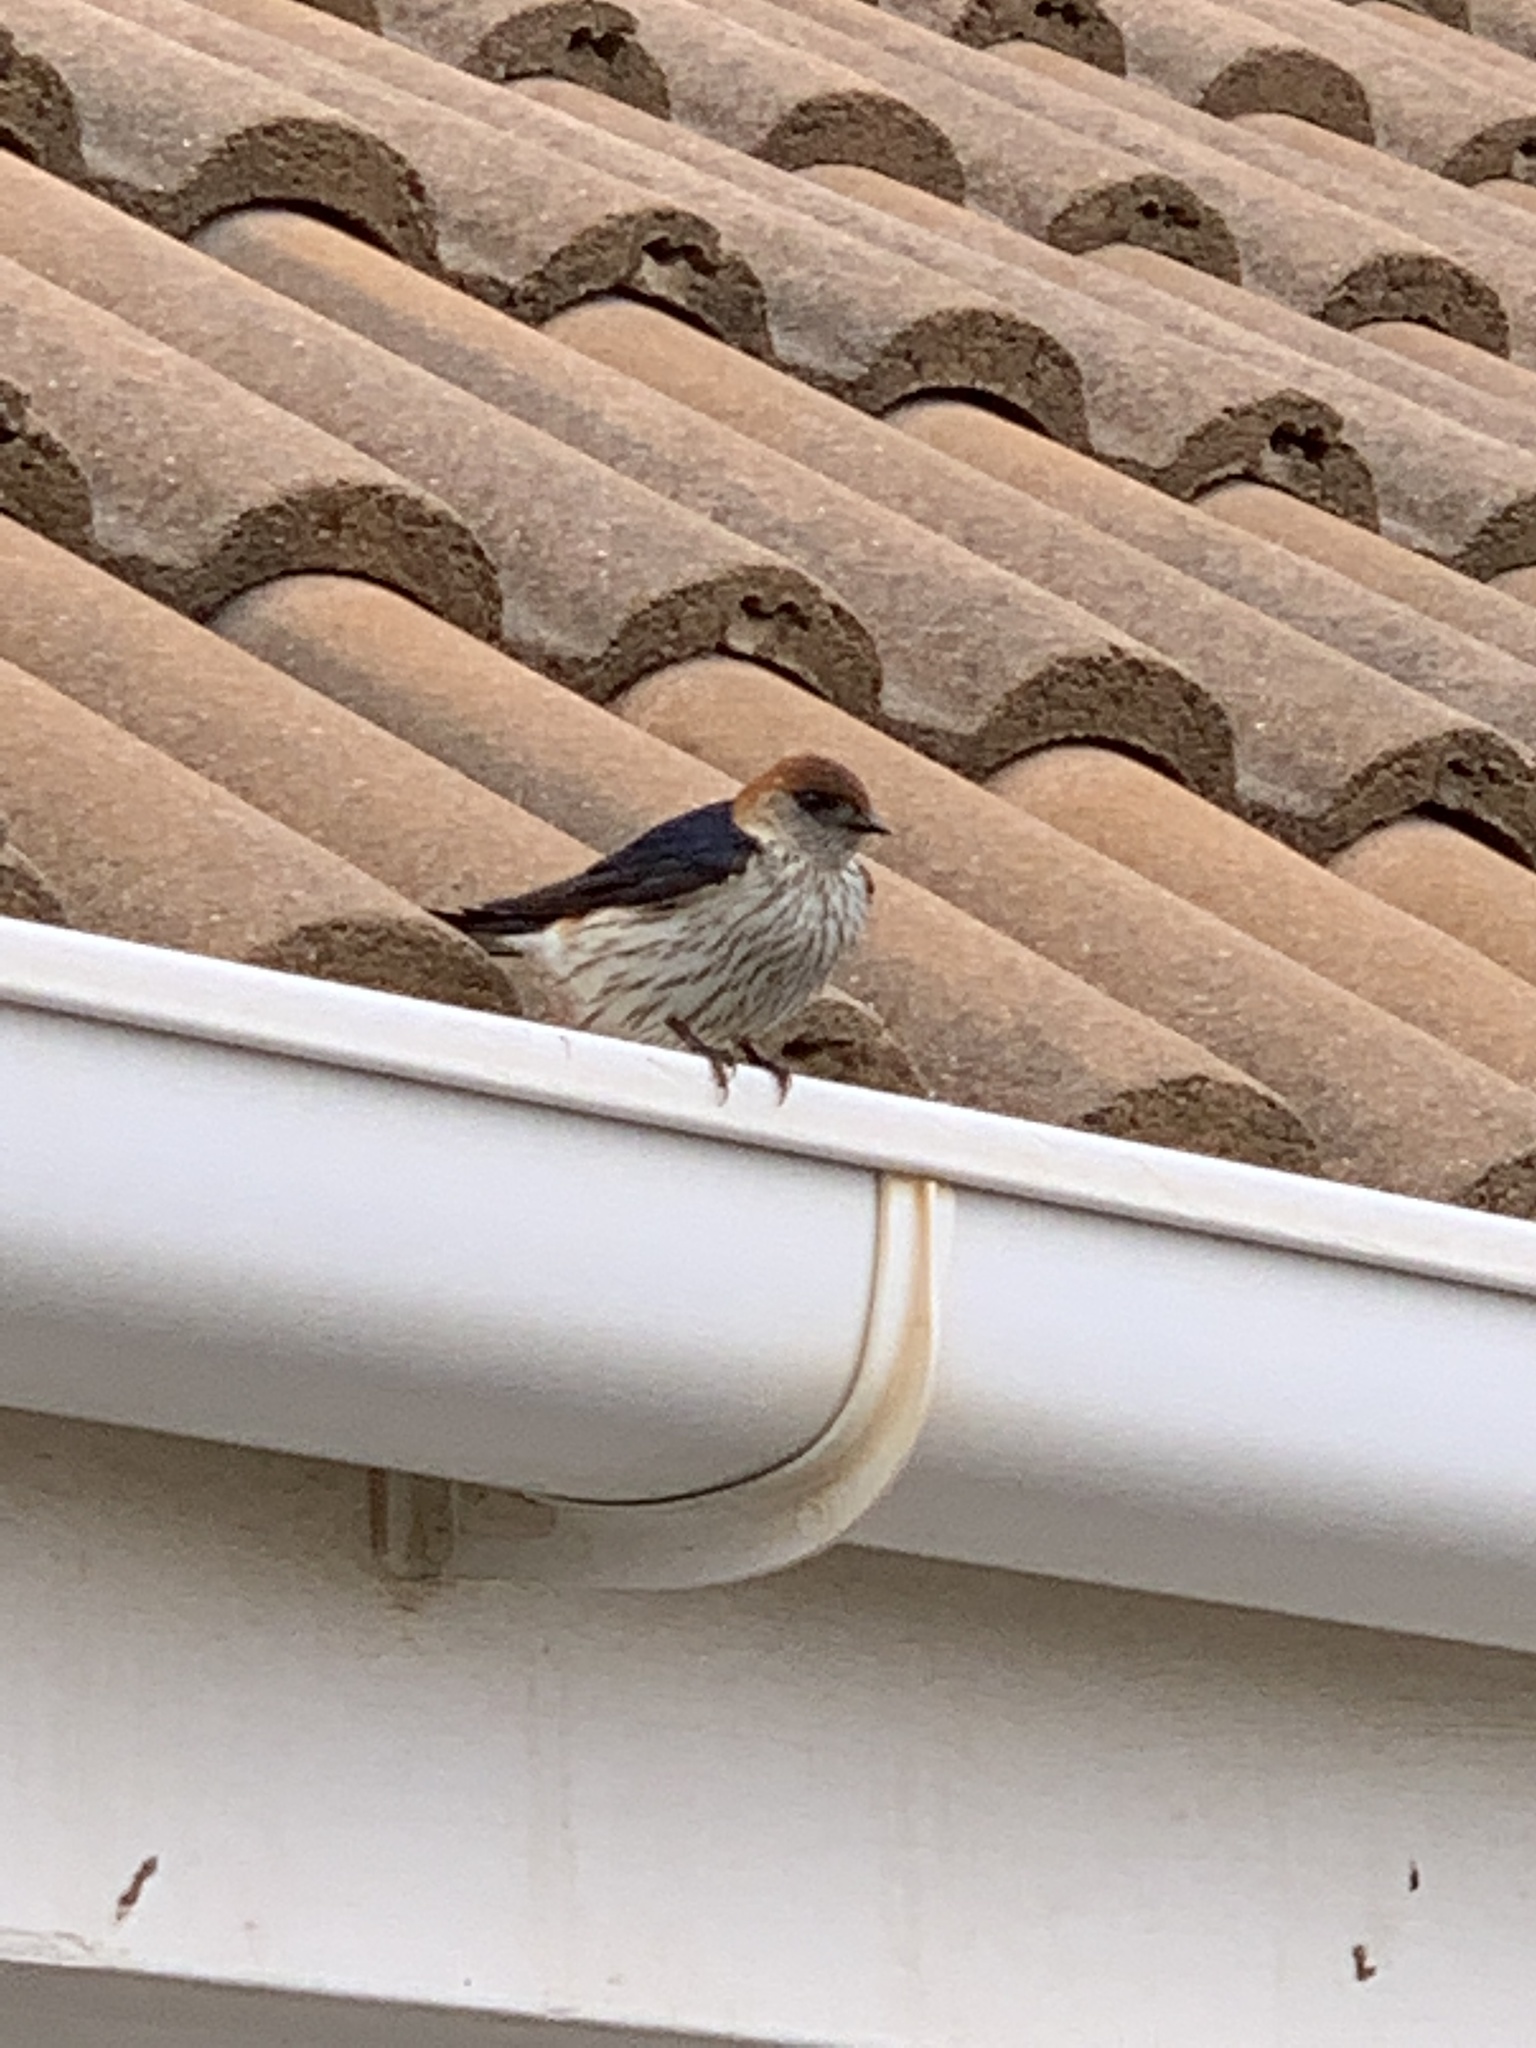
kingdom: Animalia
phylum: Chordata
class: Aves
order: Passeriformes
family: Hirundinidae
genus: Cecropis
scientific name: Cecropis cucullata
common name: Greater striped-swallow
